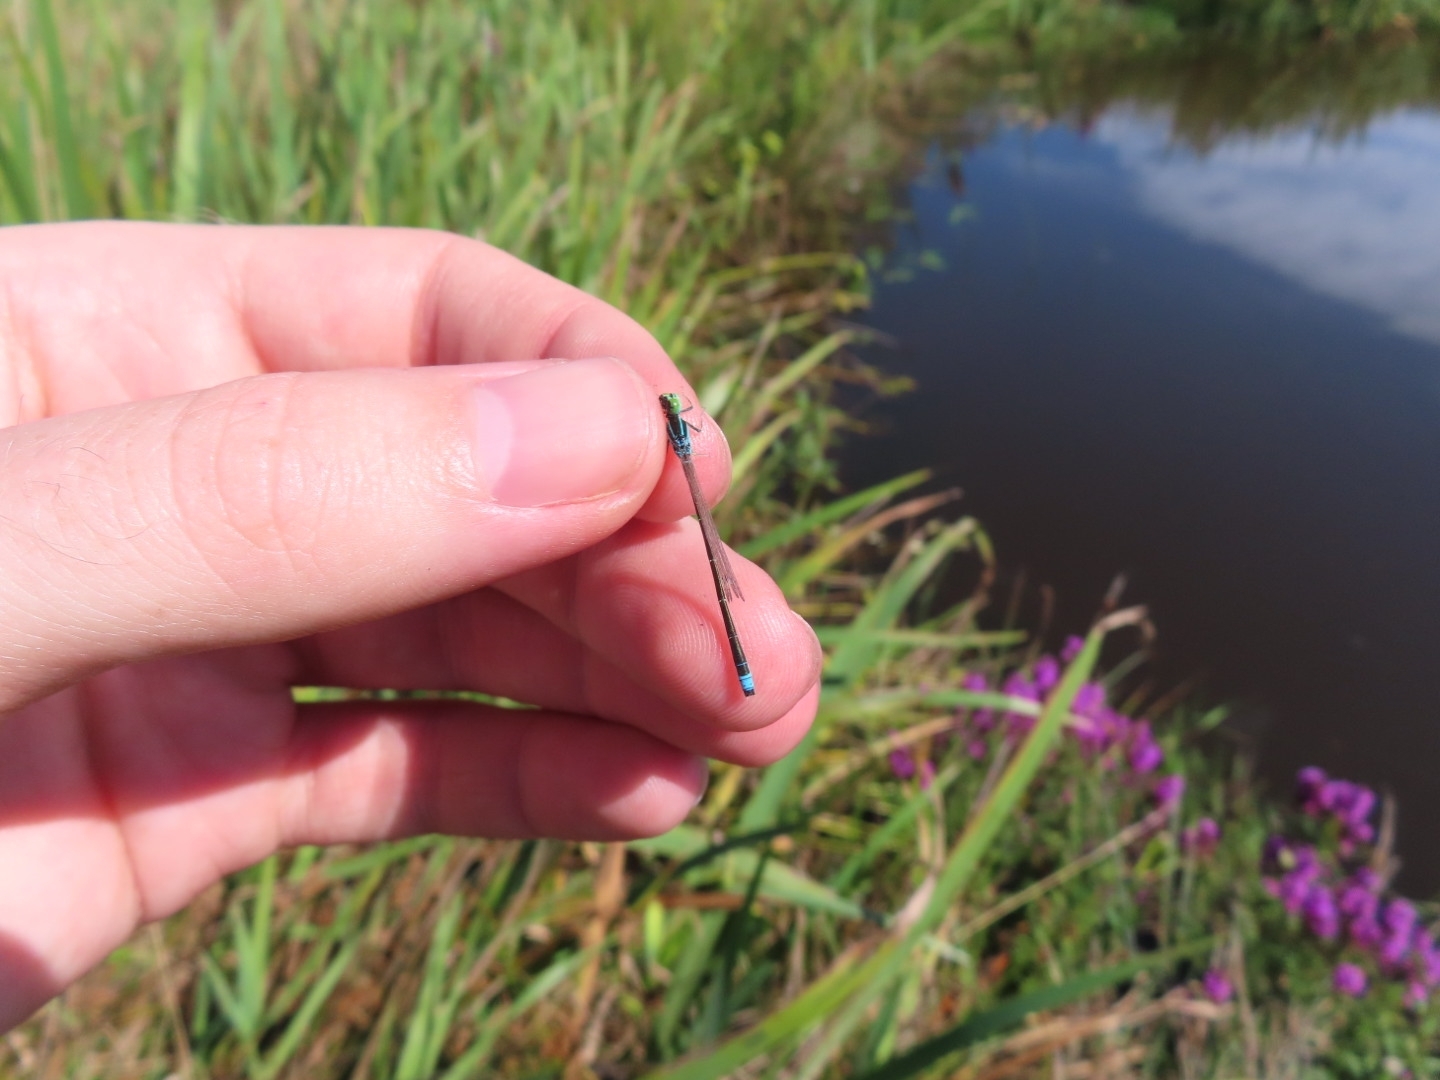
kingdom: Animalia
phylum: Arthropoda
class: Insecta
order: Odonata
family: Coenagrionidae
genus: Ischnura
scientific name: Ischnura pumilio
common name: Scarce blue-tailed damselfly
